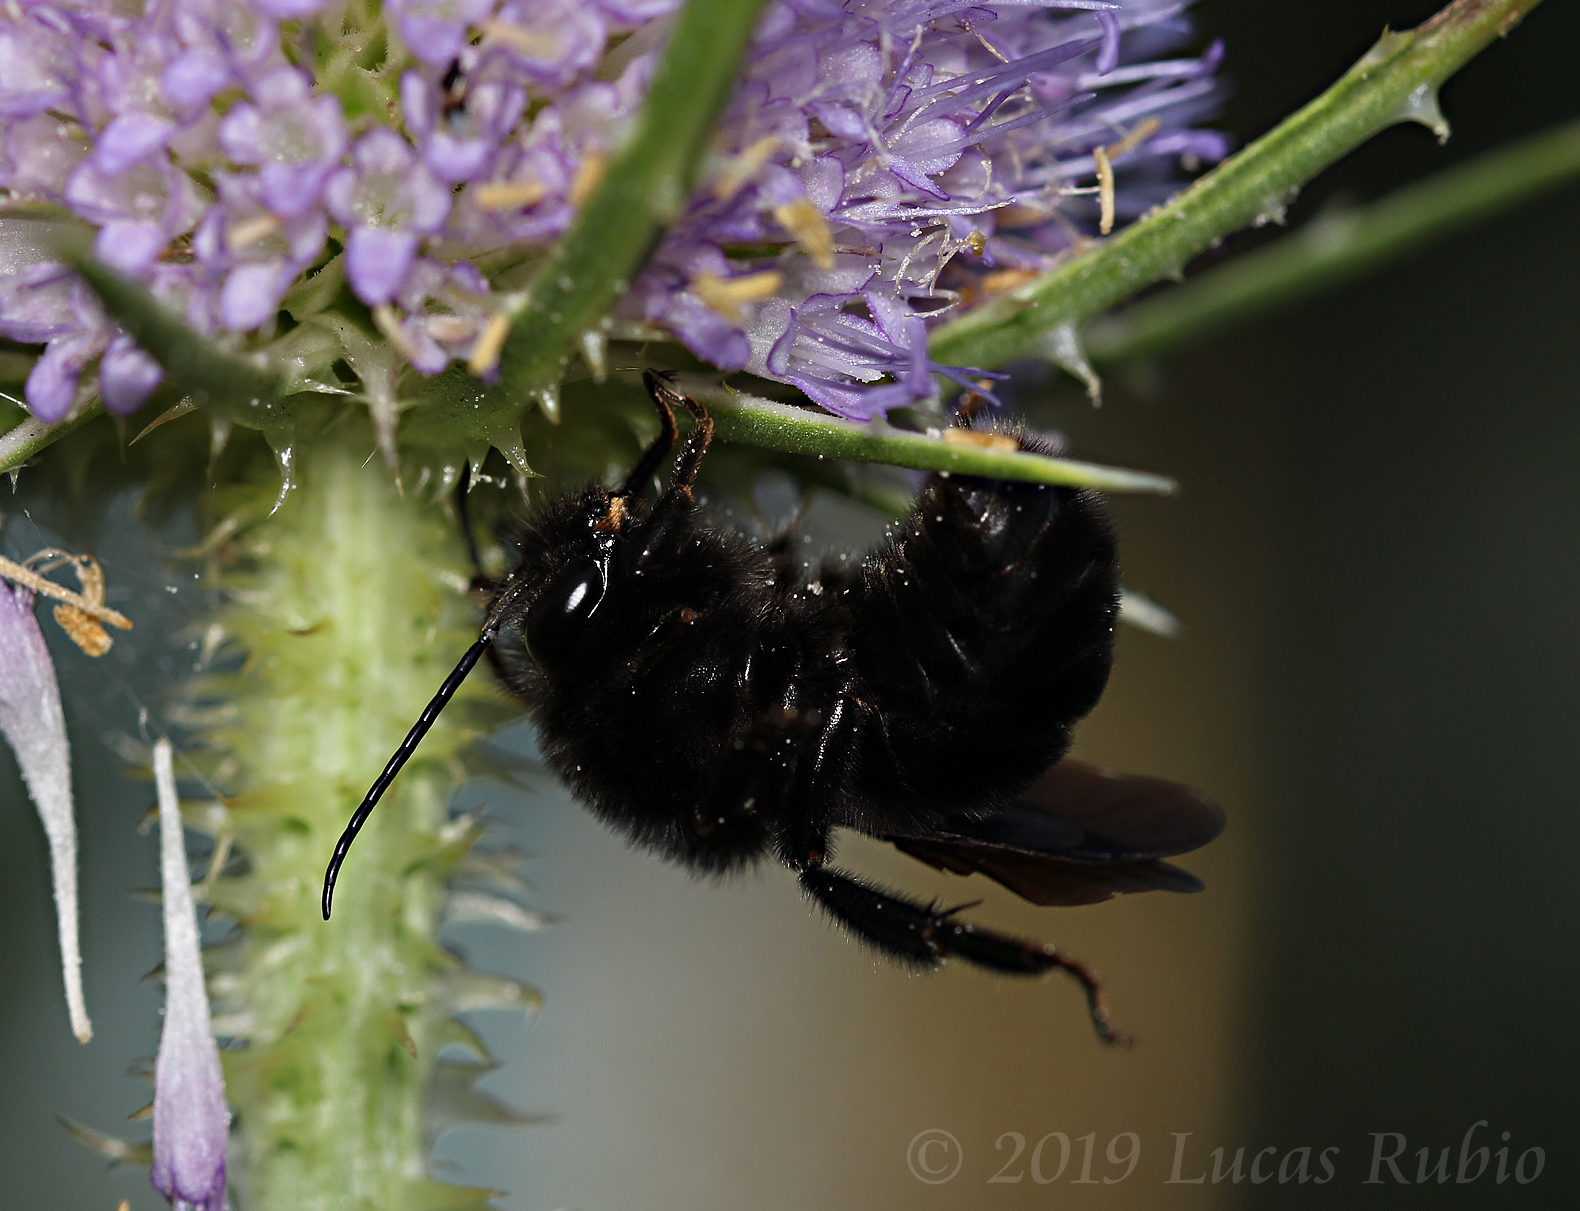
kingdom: Animalia
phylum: Arthropoda
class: Insecta
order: Hymenoptera
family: Apidae
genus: Bombus
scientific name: Bombus pauloensis
